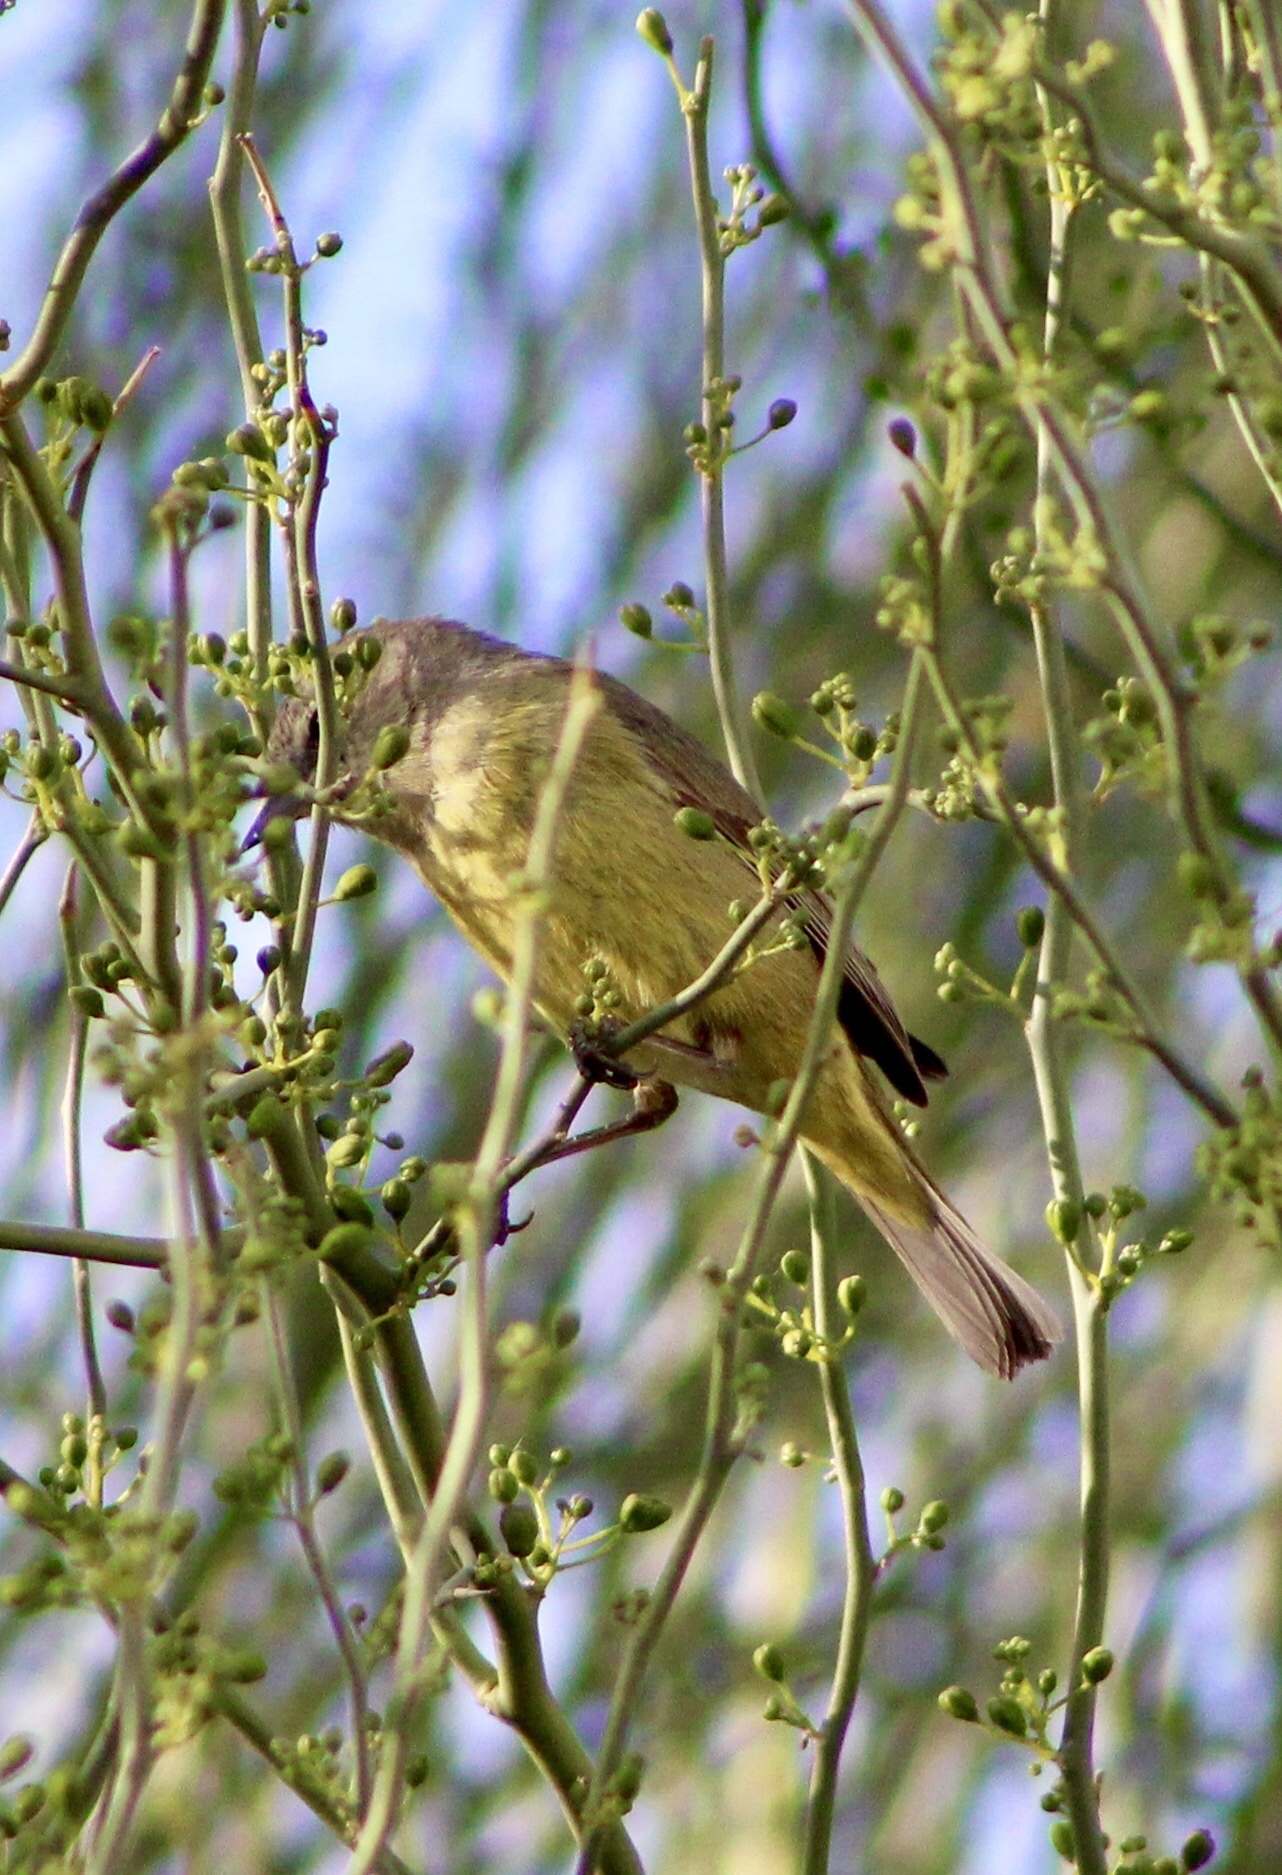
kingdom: Animalia
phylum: Chordata
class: Aves
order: Passeriformes
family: Parulidae
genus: Leiothlypis
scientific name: Leiothlypis celata
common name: Orange-crowned warbler
